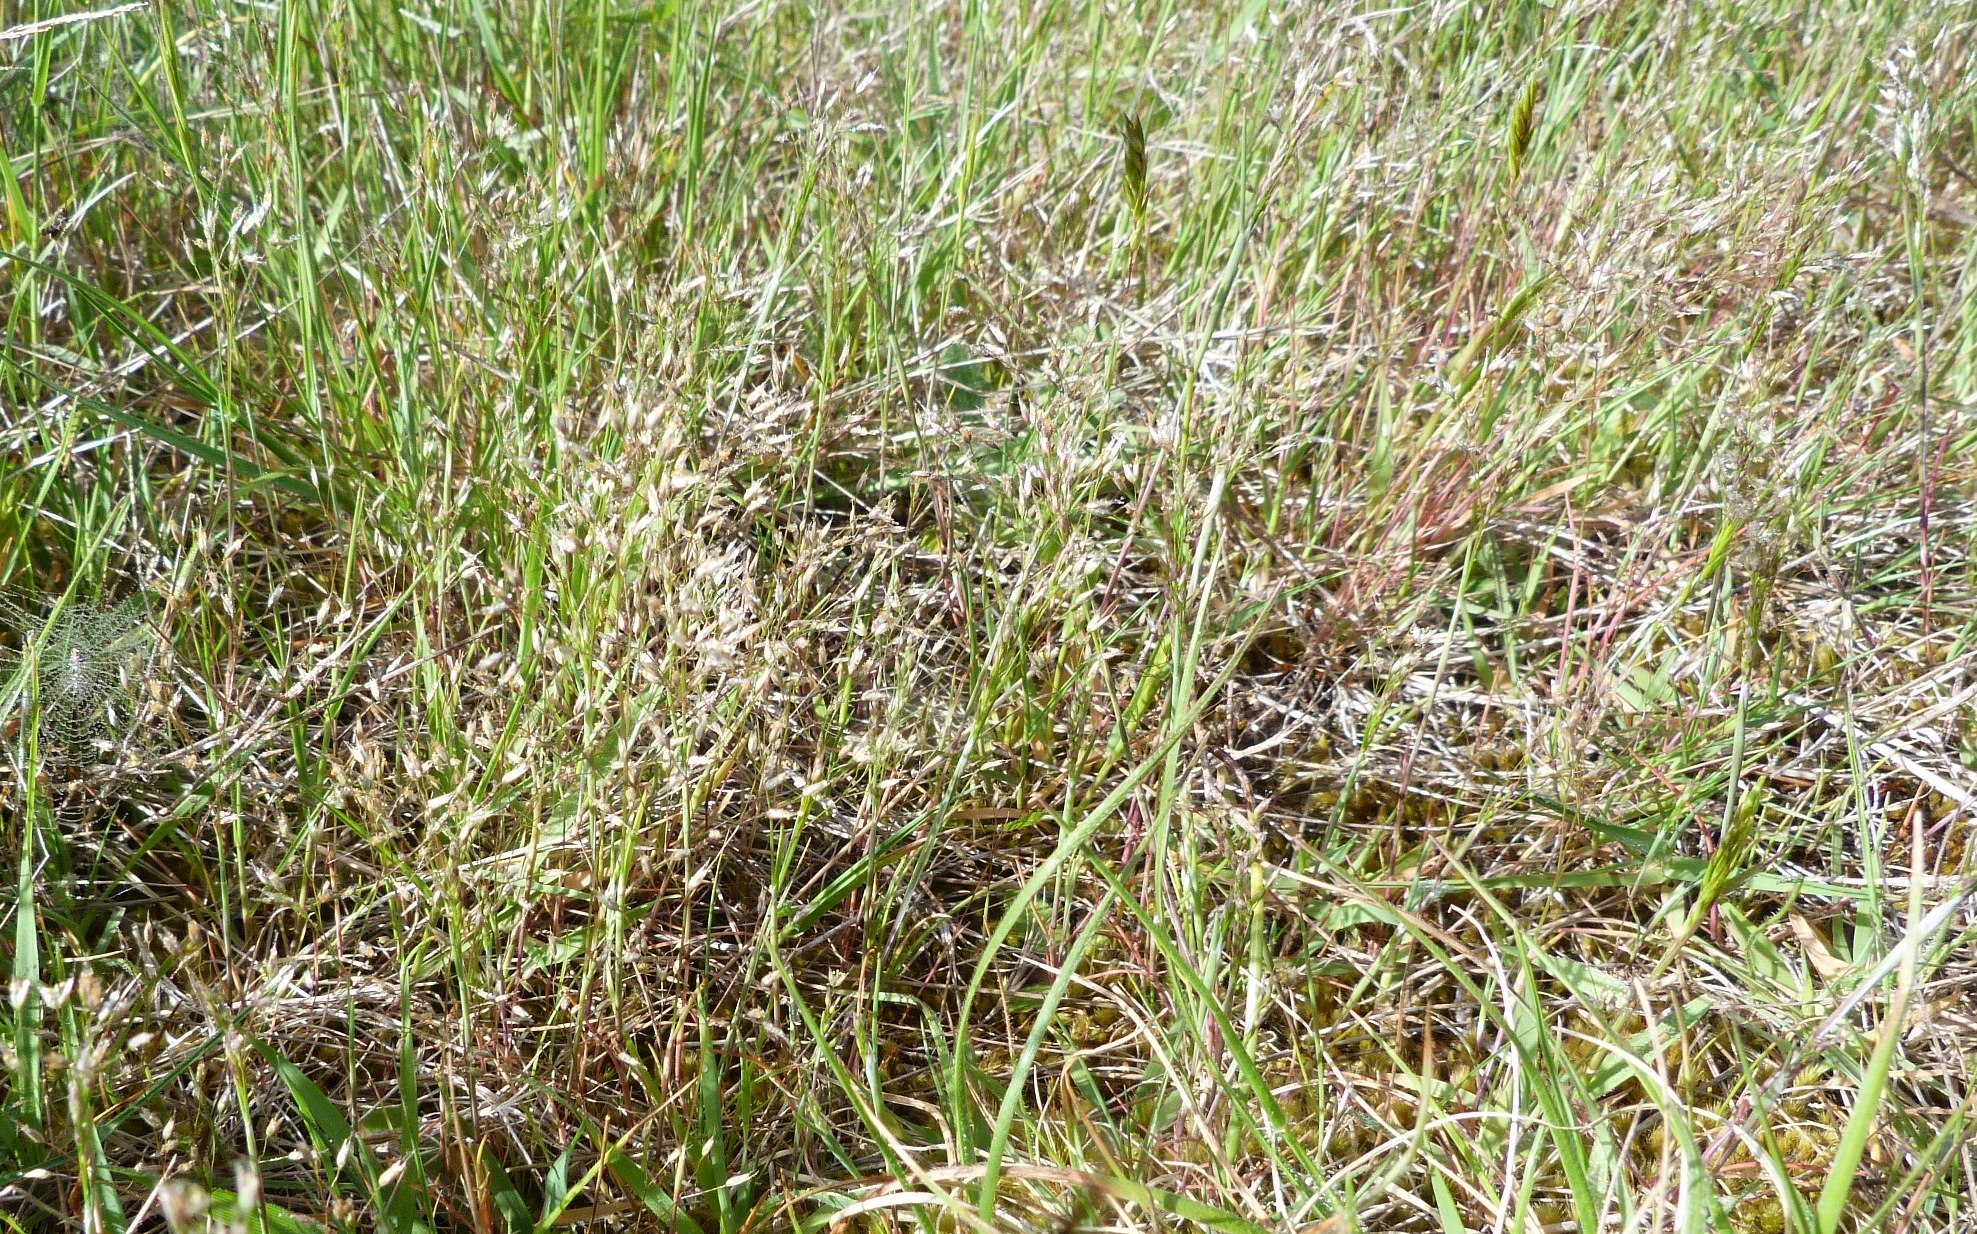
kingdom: Plantae
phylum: Tracheophyta
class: Liliopsida
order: Poales
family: Poaceae
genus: Aira
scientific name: Aira caryophyllea
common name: Silver hairgrass
